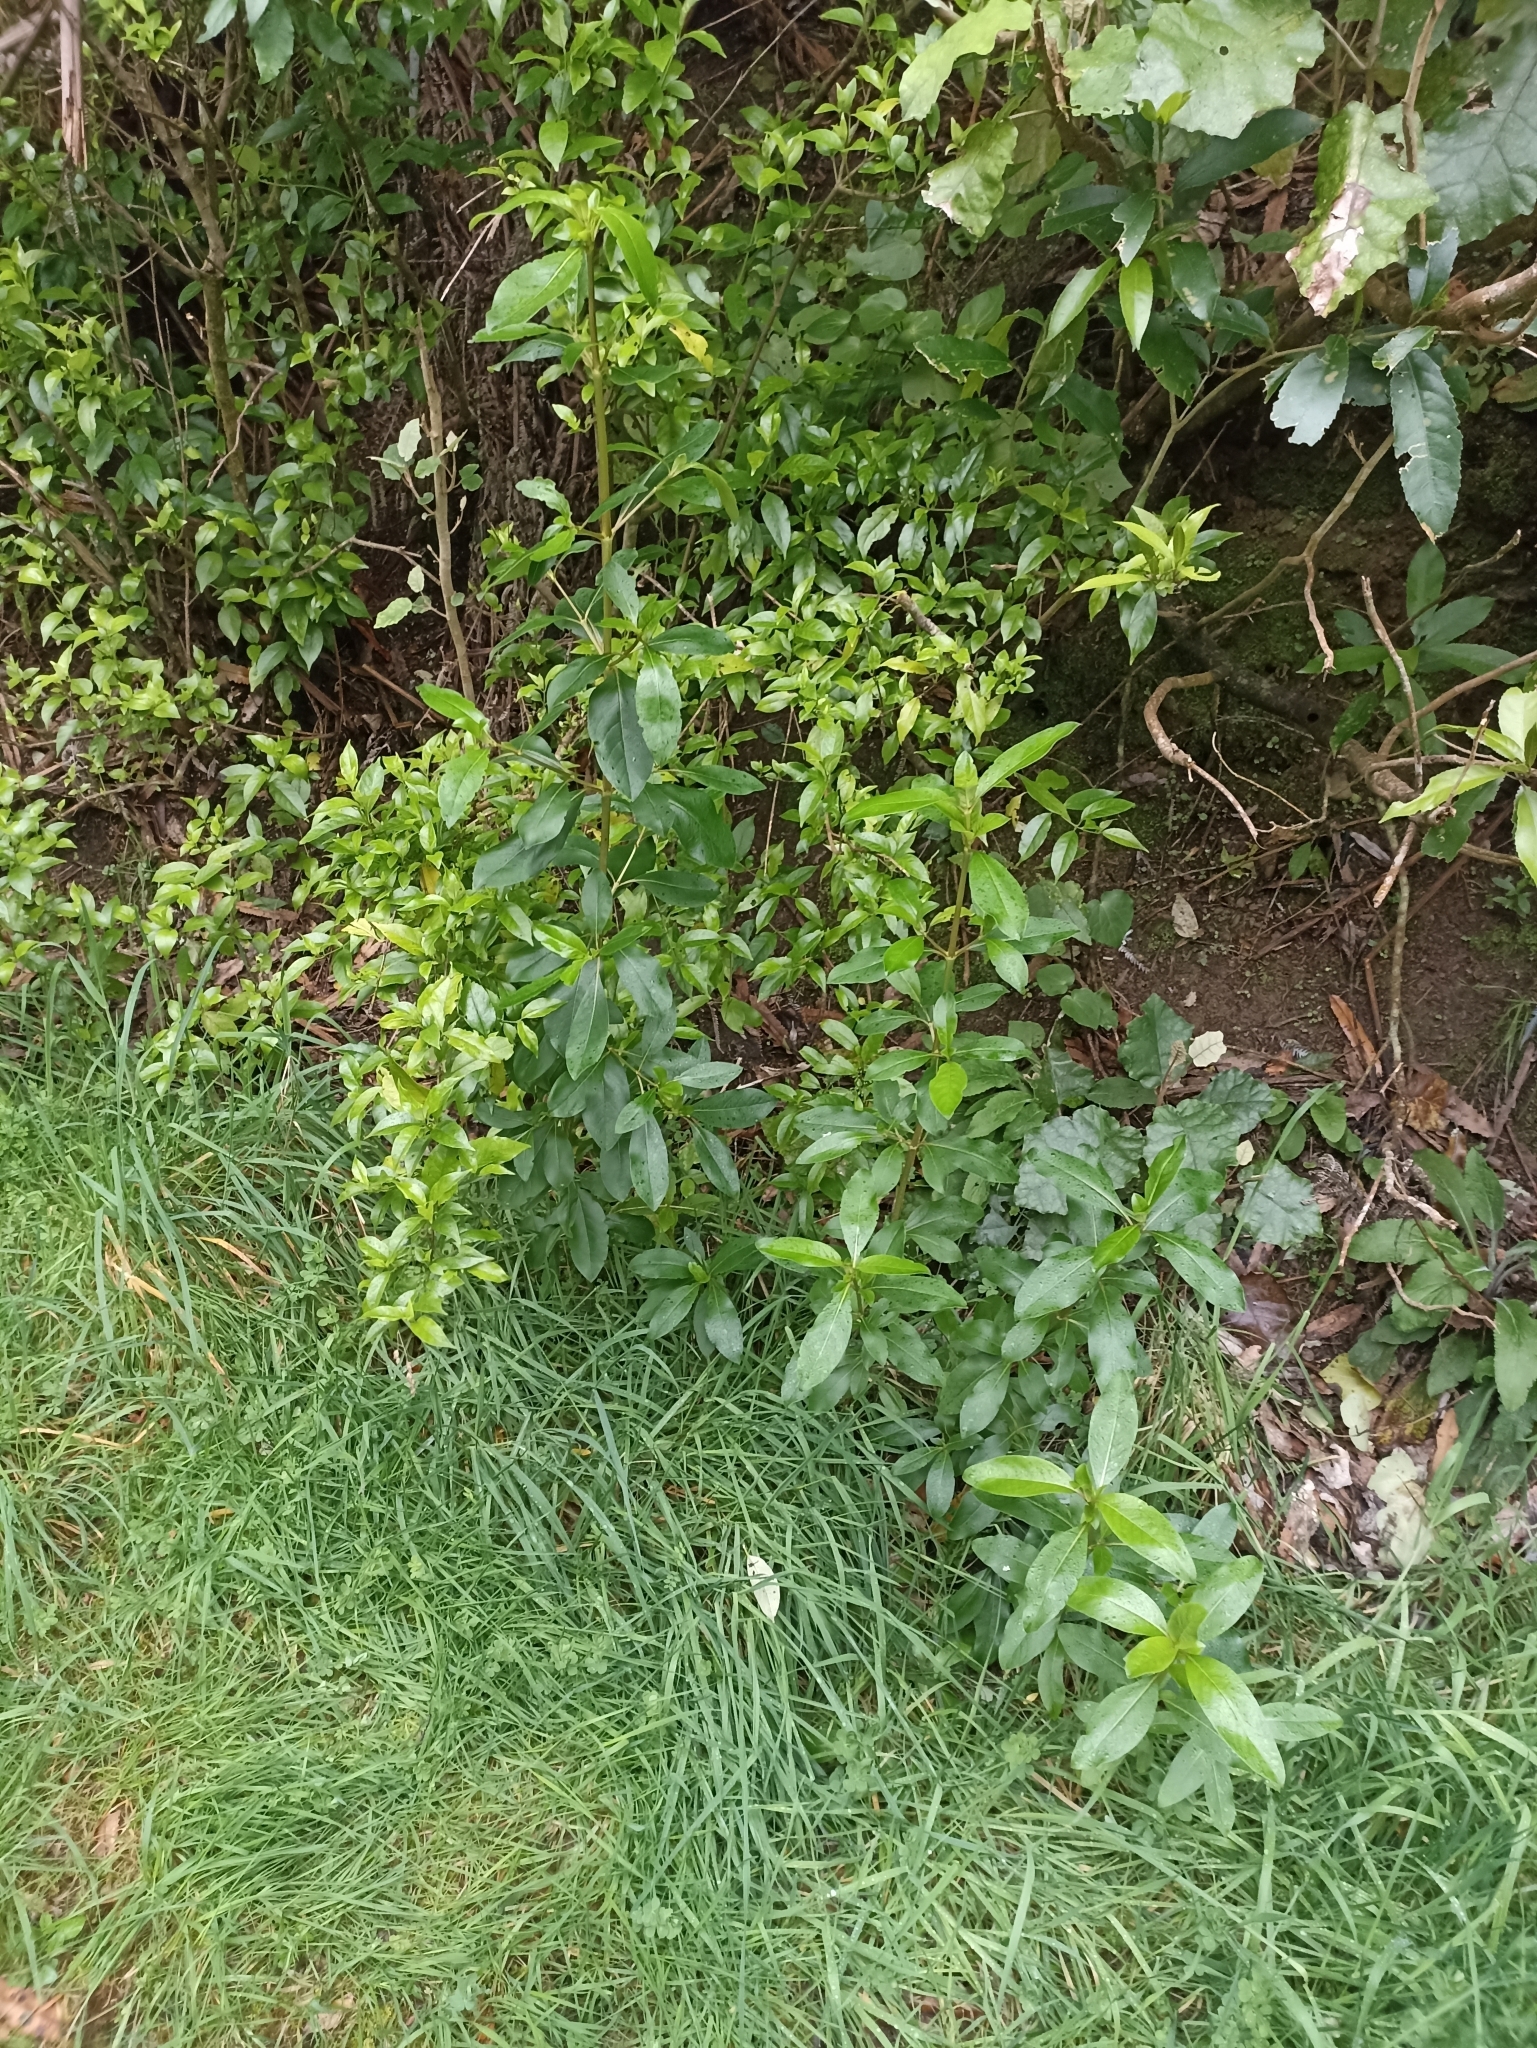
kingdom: Plantae
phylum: Tracheophyta
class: Magnoliopsida
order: Gentianales
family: Rubiaceae
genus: Coprosma
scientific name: Coprosma robusta
